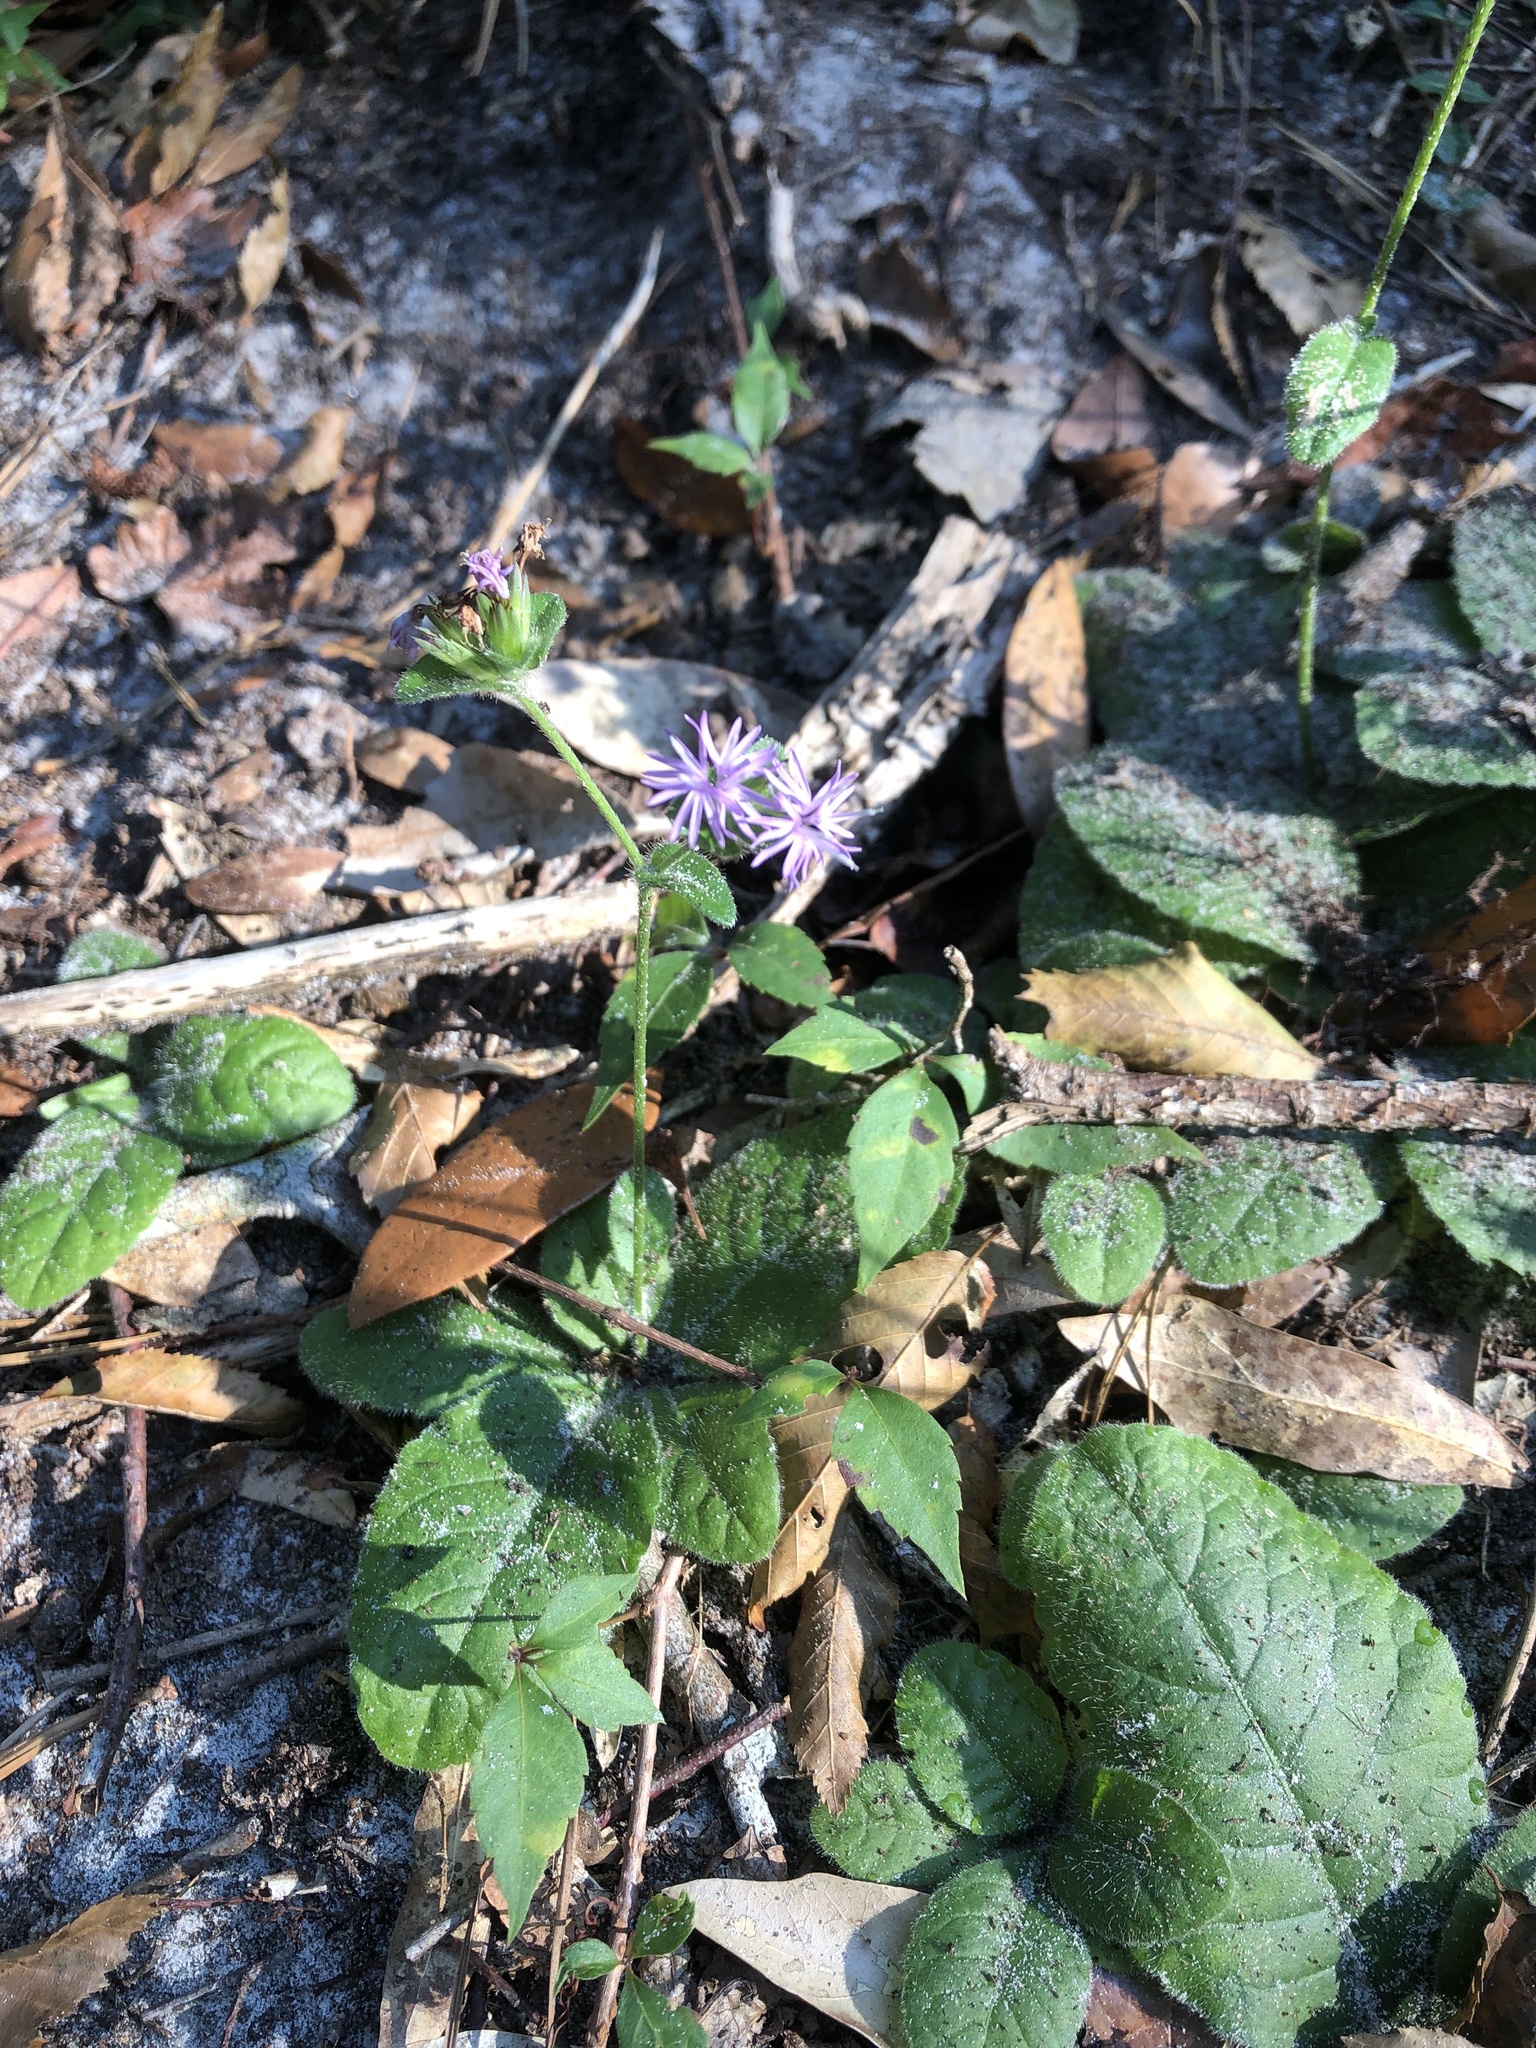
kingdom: Plantae
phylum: Tracheophyta
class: Magnoliopsida
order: Asterales
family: Asteraceae
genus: Elephantopus
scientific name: Elephantopus tomentosus
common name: Tobacco-weed
